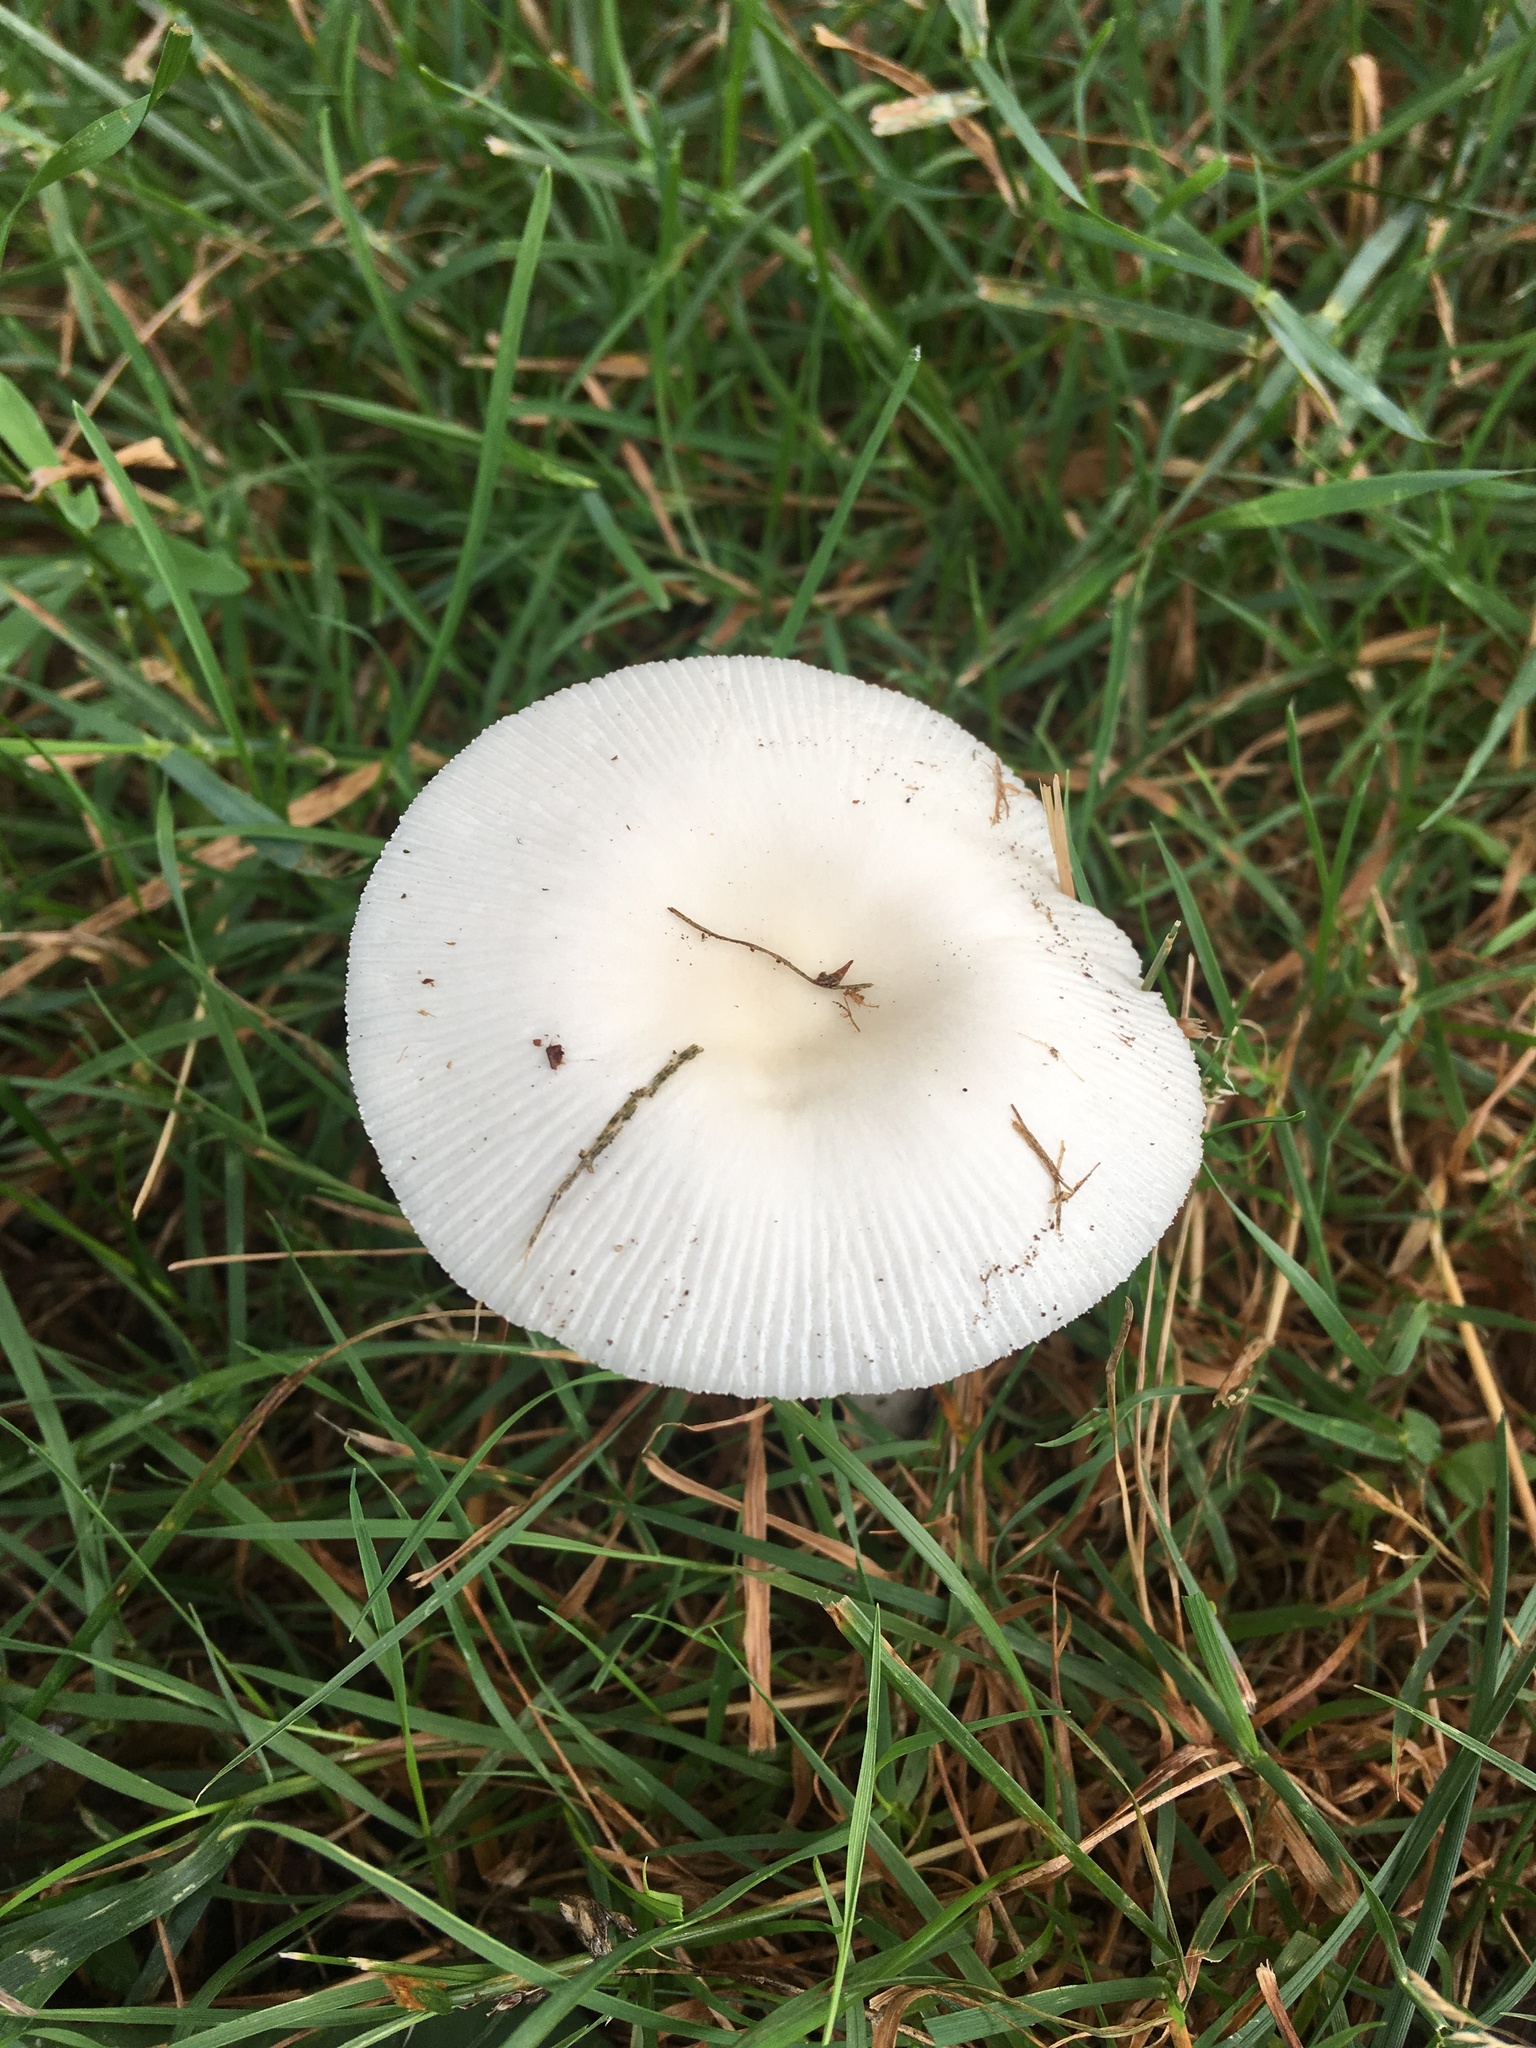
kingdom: Fungi
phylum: Basidiomycota
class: Agaricomycetes
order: Agaricales
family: Amanitaceae
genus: Amanita
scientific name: Amanita vaginata
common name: Grisette
